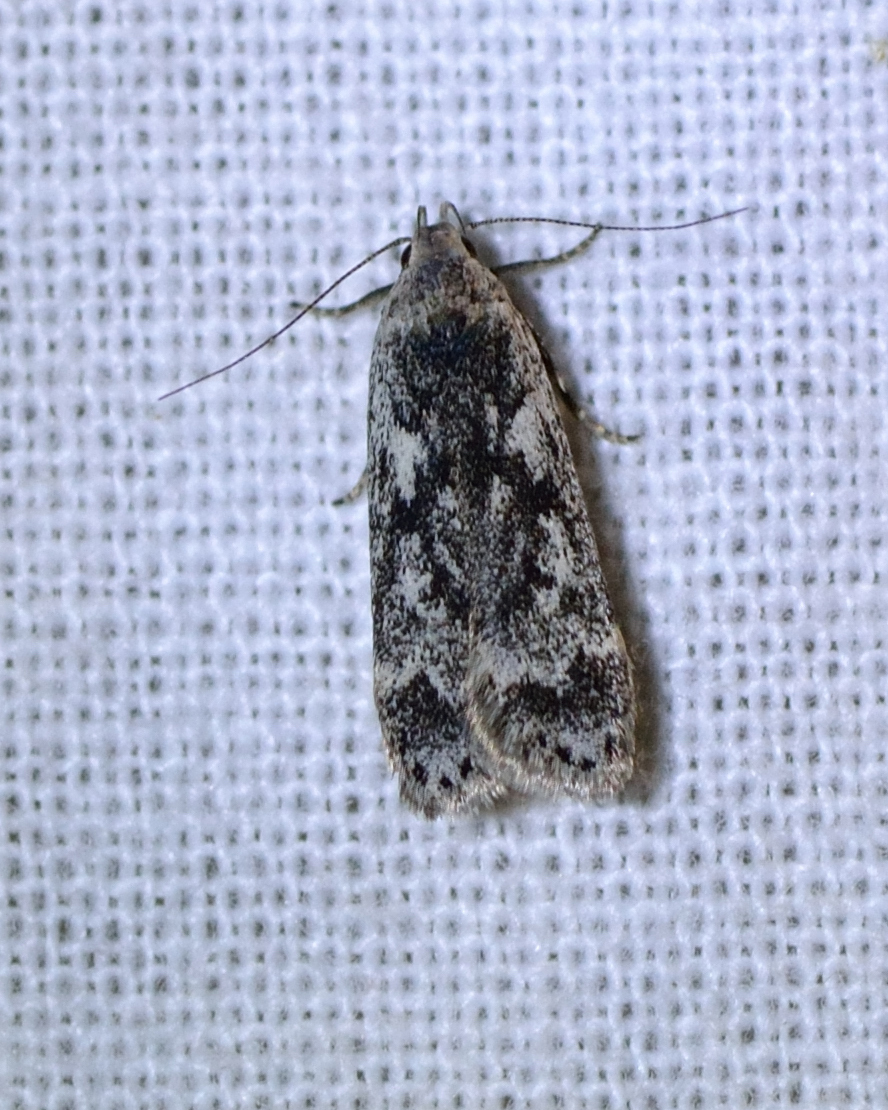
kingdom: Animalia
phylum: Arthropoda
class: Insecta
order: Lepidoptera
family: Gelechiidae
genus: Anacampsis
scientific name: Anacampsis blattariella
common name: Birch sober
